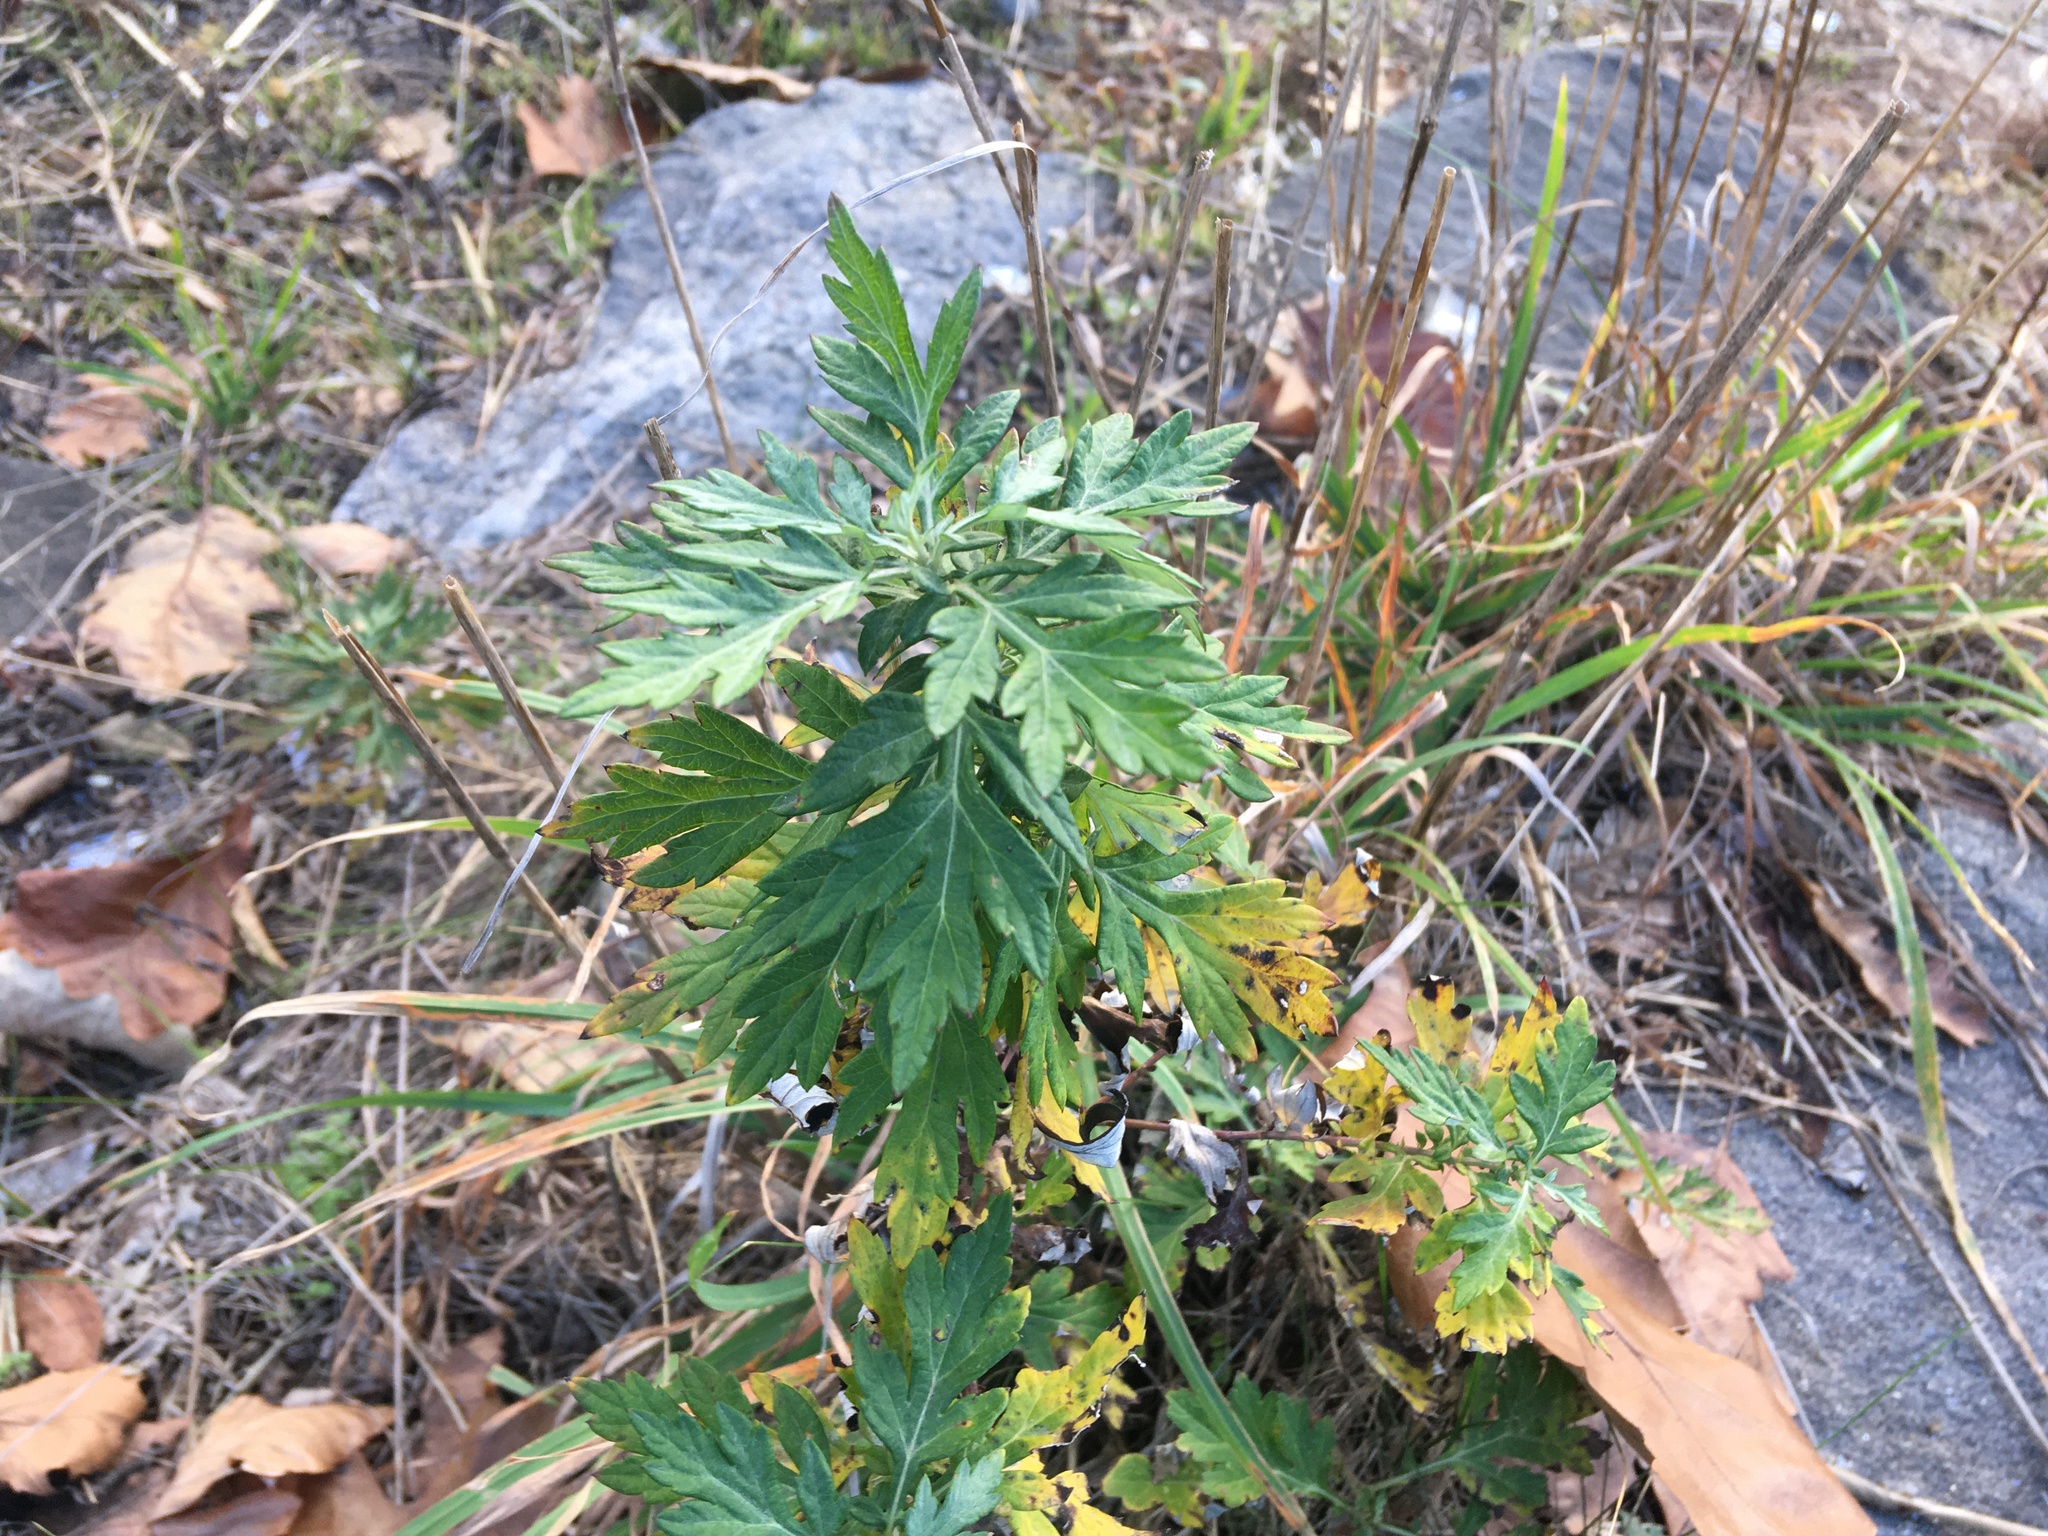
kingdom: Plantae
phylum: Tracheophyta
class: Magnoliopsida
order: Asterales
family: Asteraceae
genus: Artemisia
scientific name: Artemisia vulgaris
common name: Mugwort
